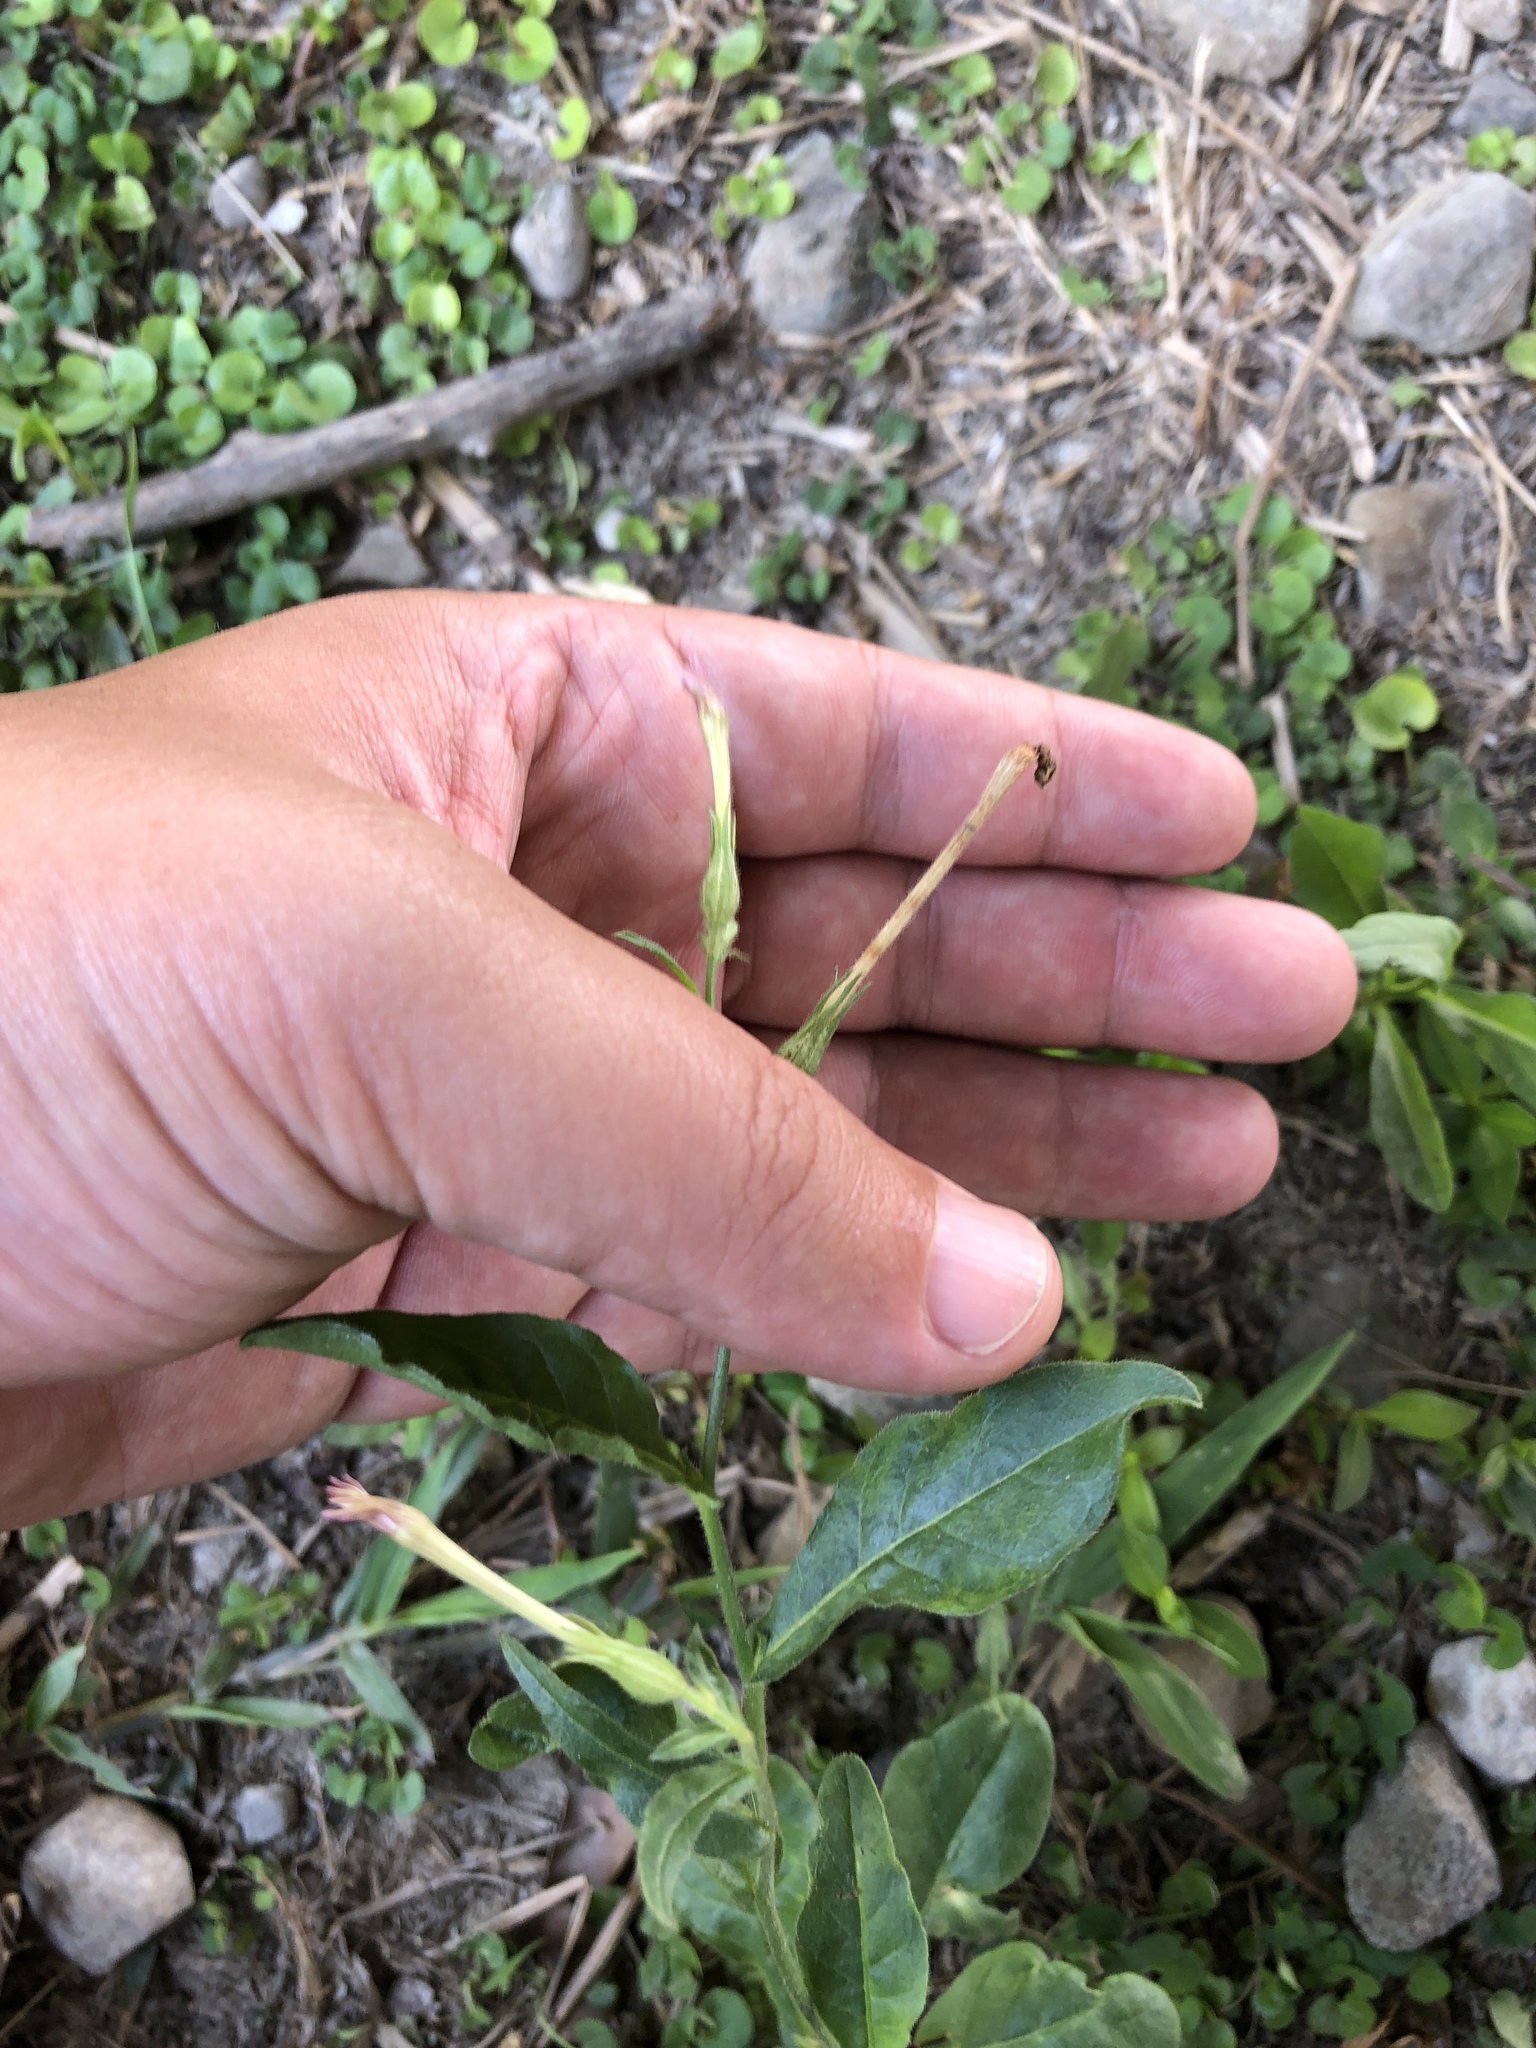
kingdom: Plantae
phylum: Tracheophyta
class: Magnoliopsida
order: Solanales
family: Solanaceae
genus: Nicotiana
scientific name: Nicotiana plumbaginifolia
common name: Tex-mex tobacco
